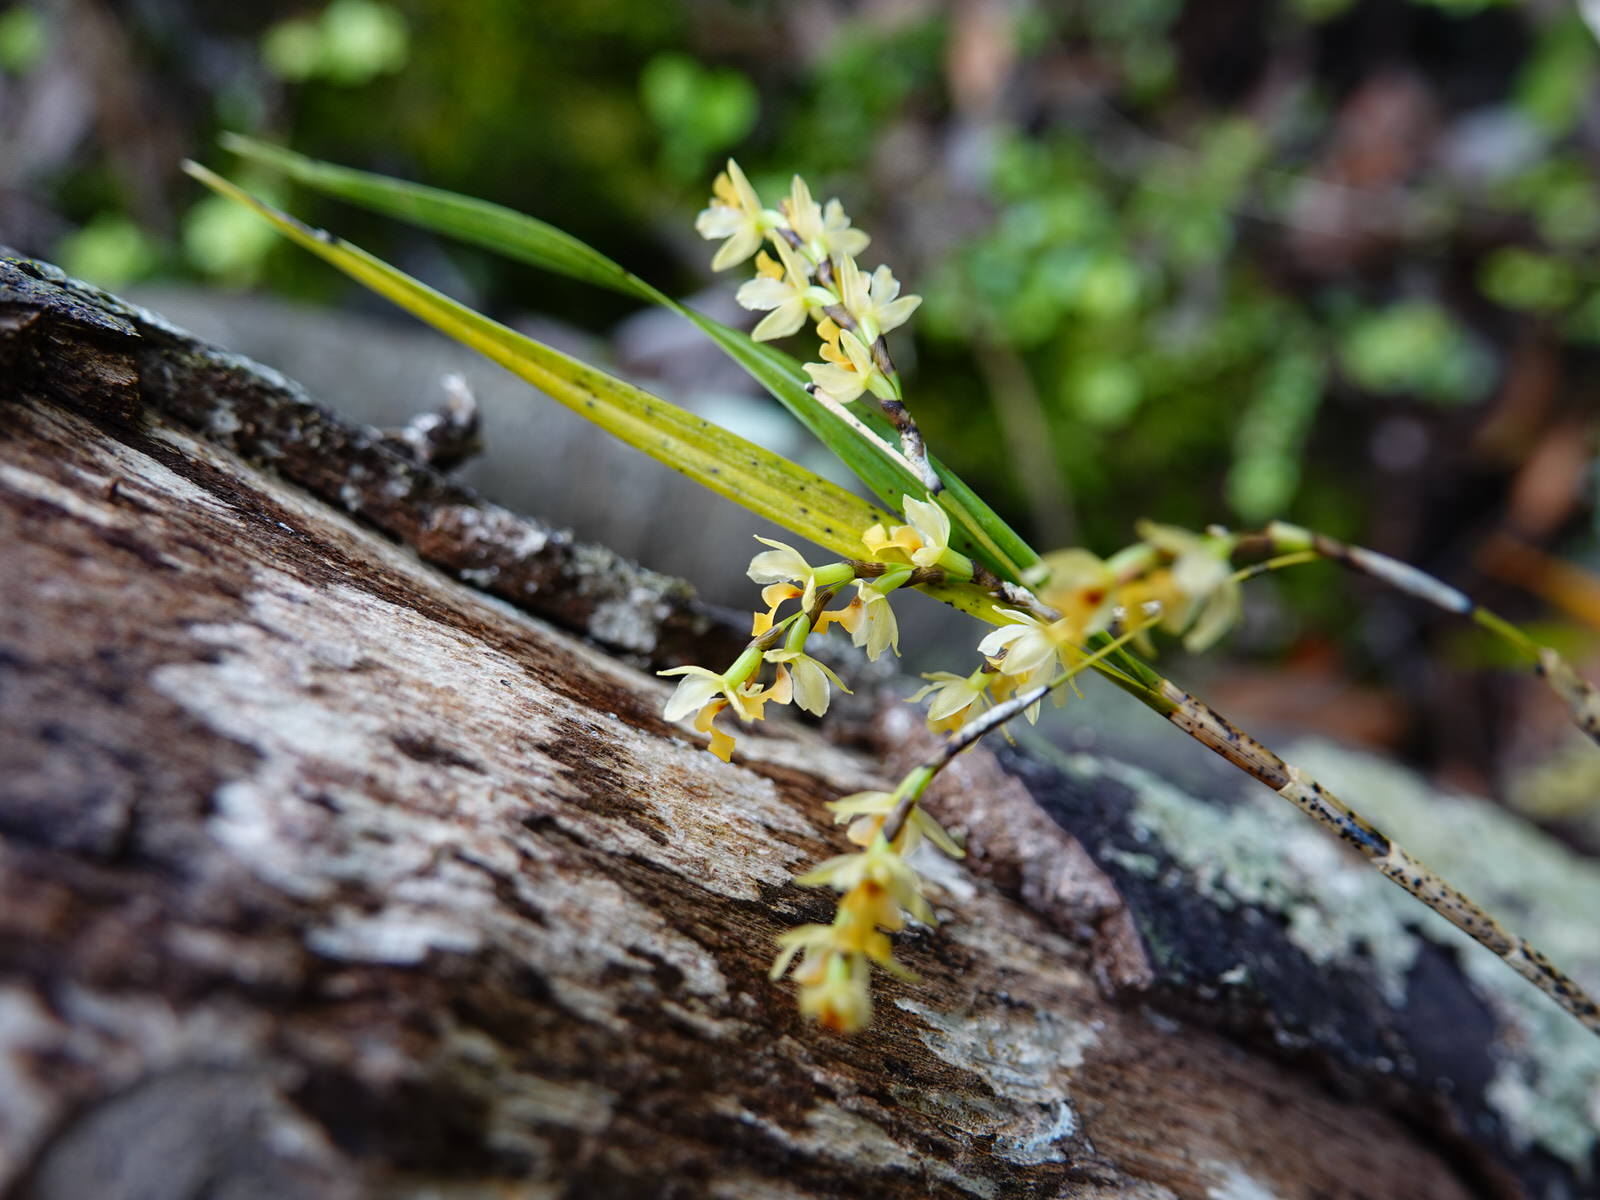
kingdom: Plantae
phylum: Tracheophyta
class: Liliopsida
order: Asparagales
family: Orchidaceae
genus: Earina
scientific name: Earina mucronata
